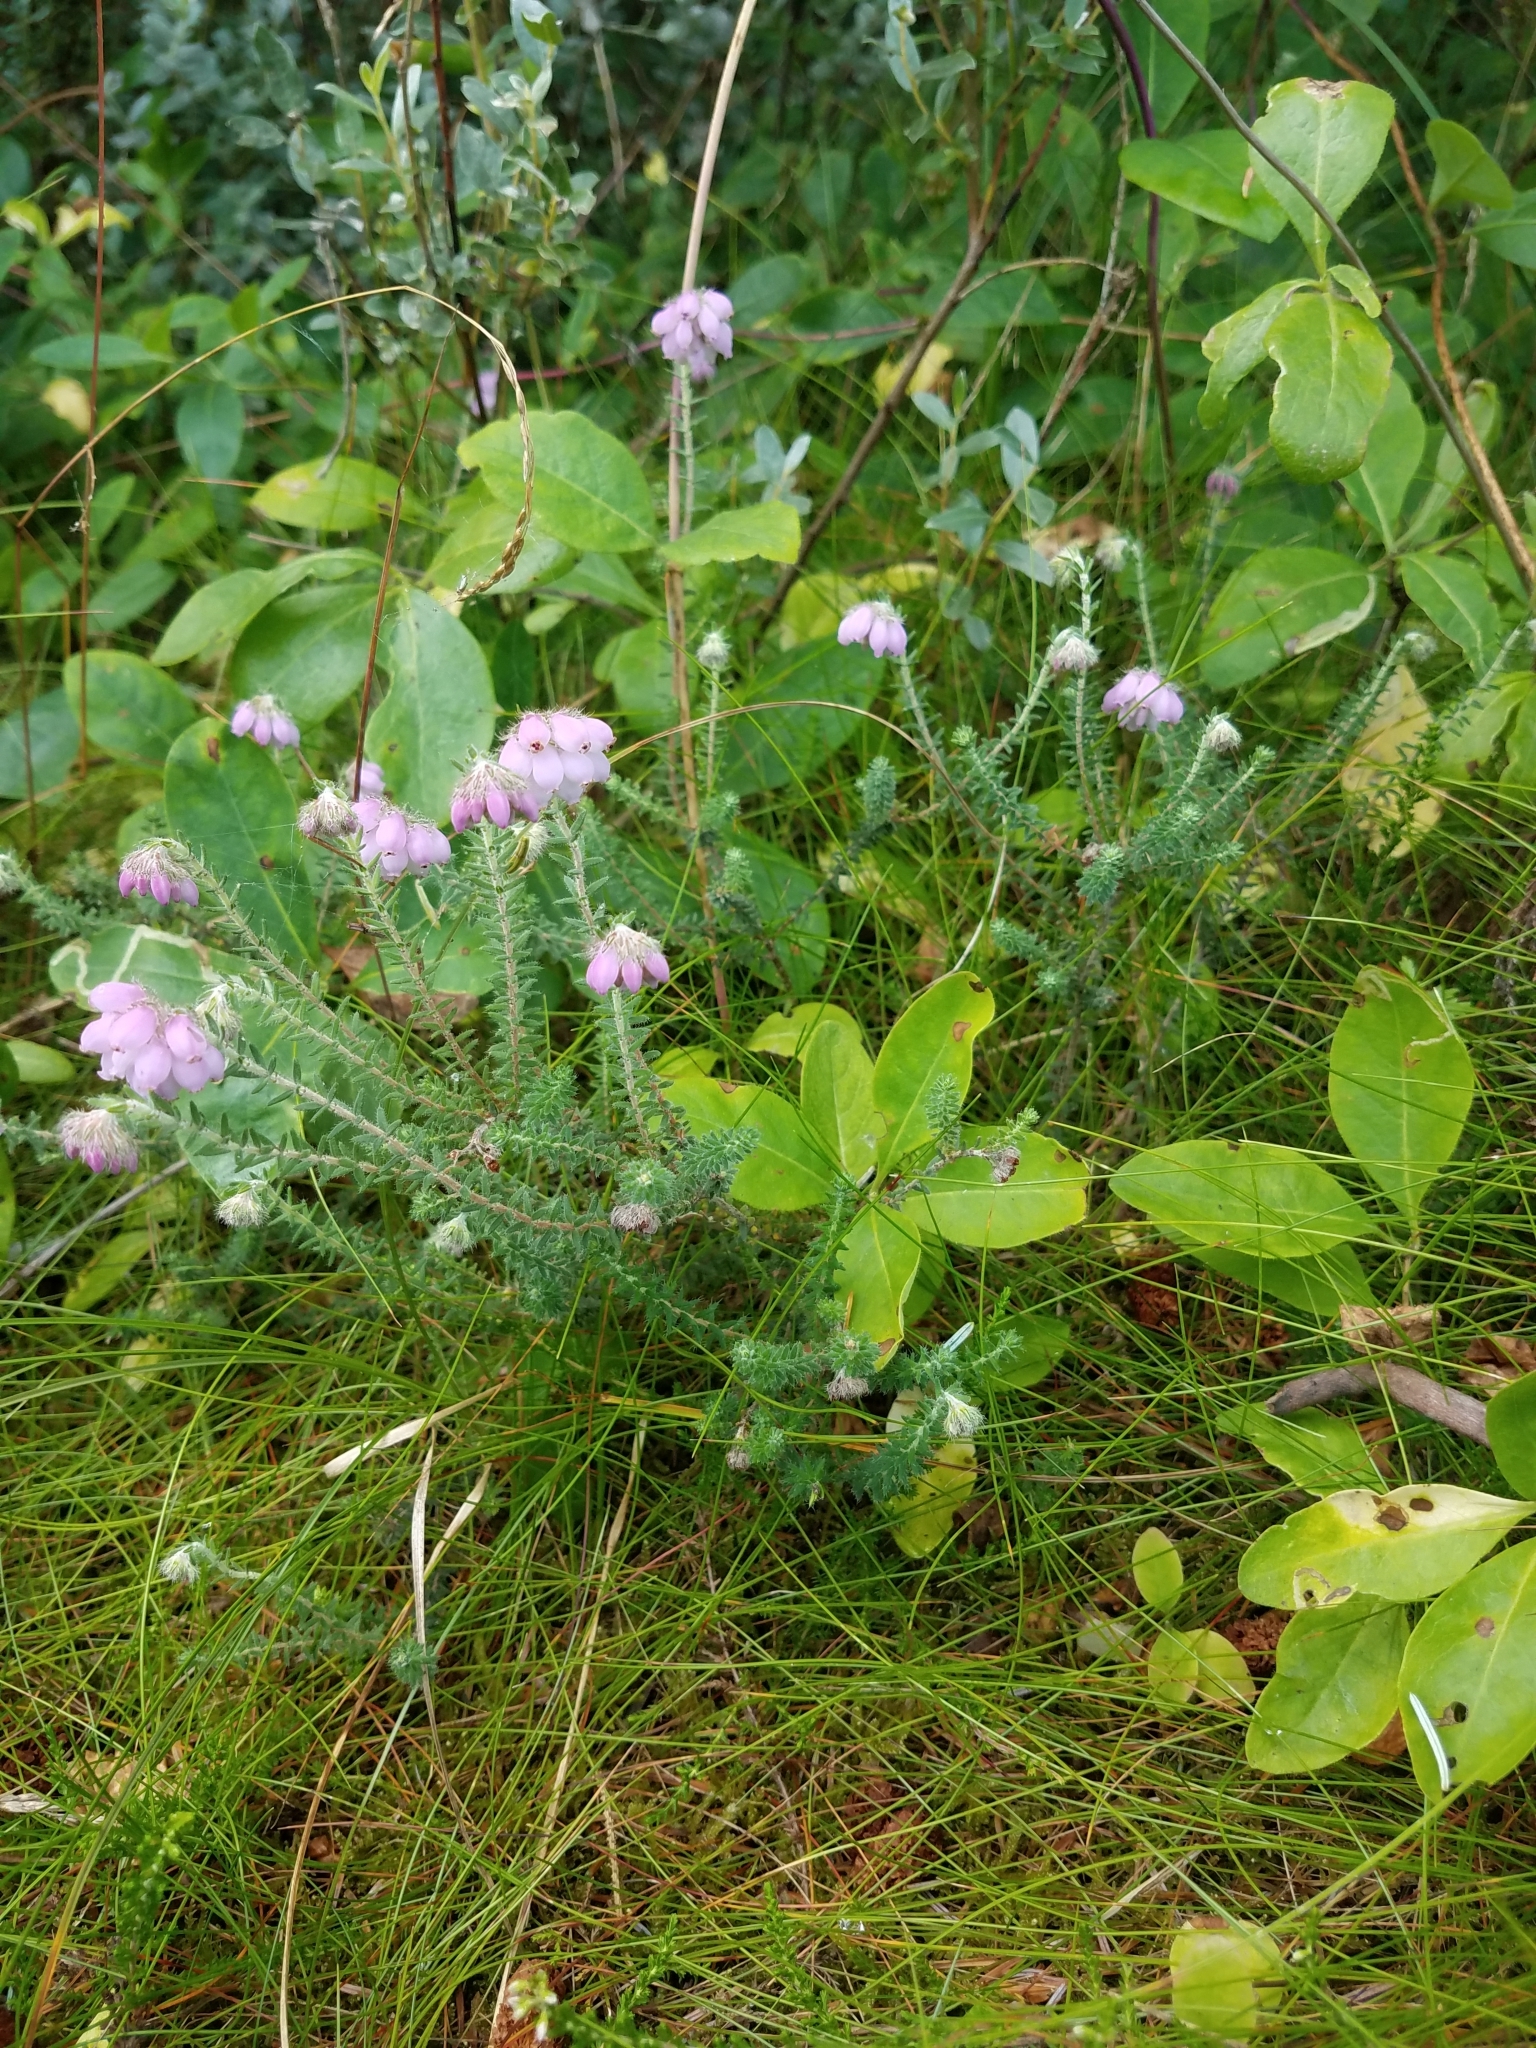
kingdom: Plantae
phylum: Tracheophyta
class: Magnoliopsida
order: Ericales
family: Ericaceae
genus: Erica
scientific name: Erica tetralix
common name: Cross-leaved heath
